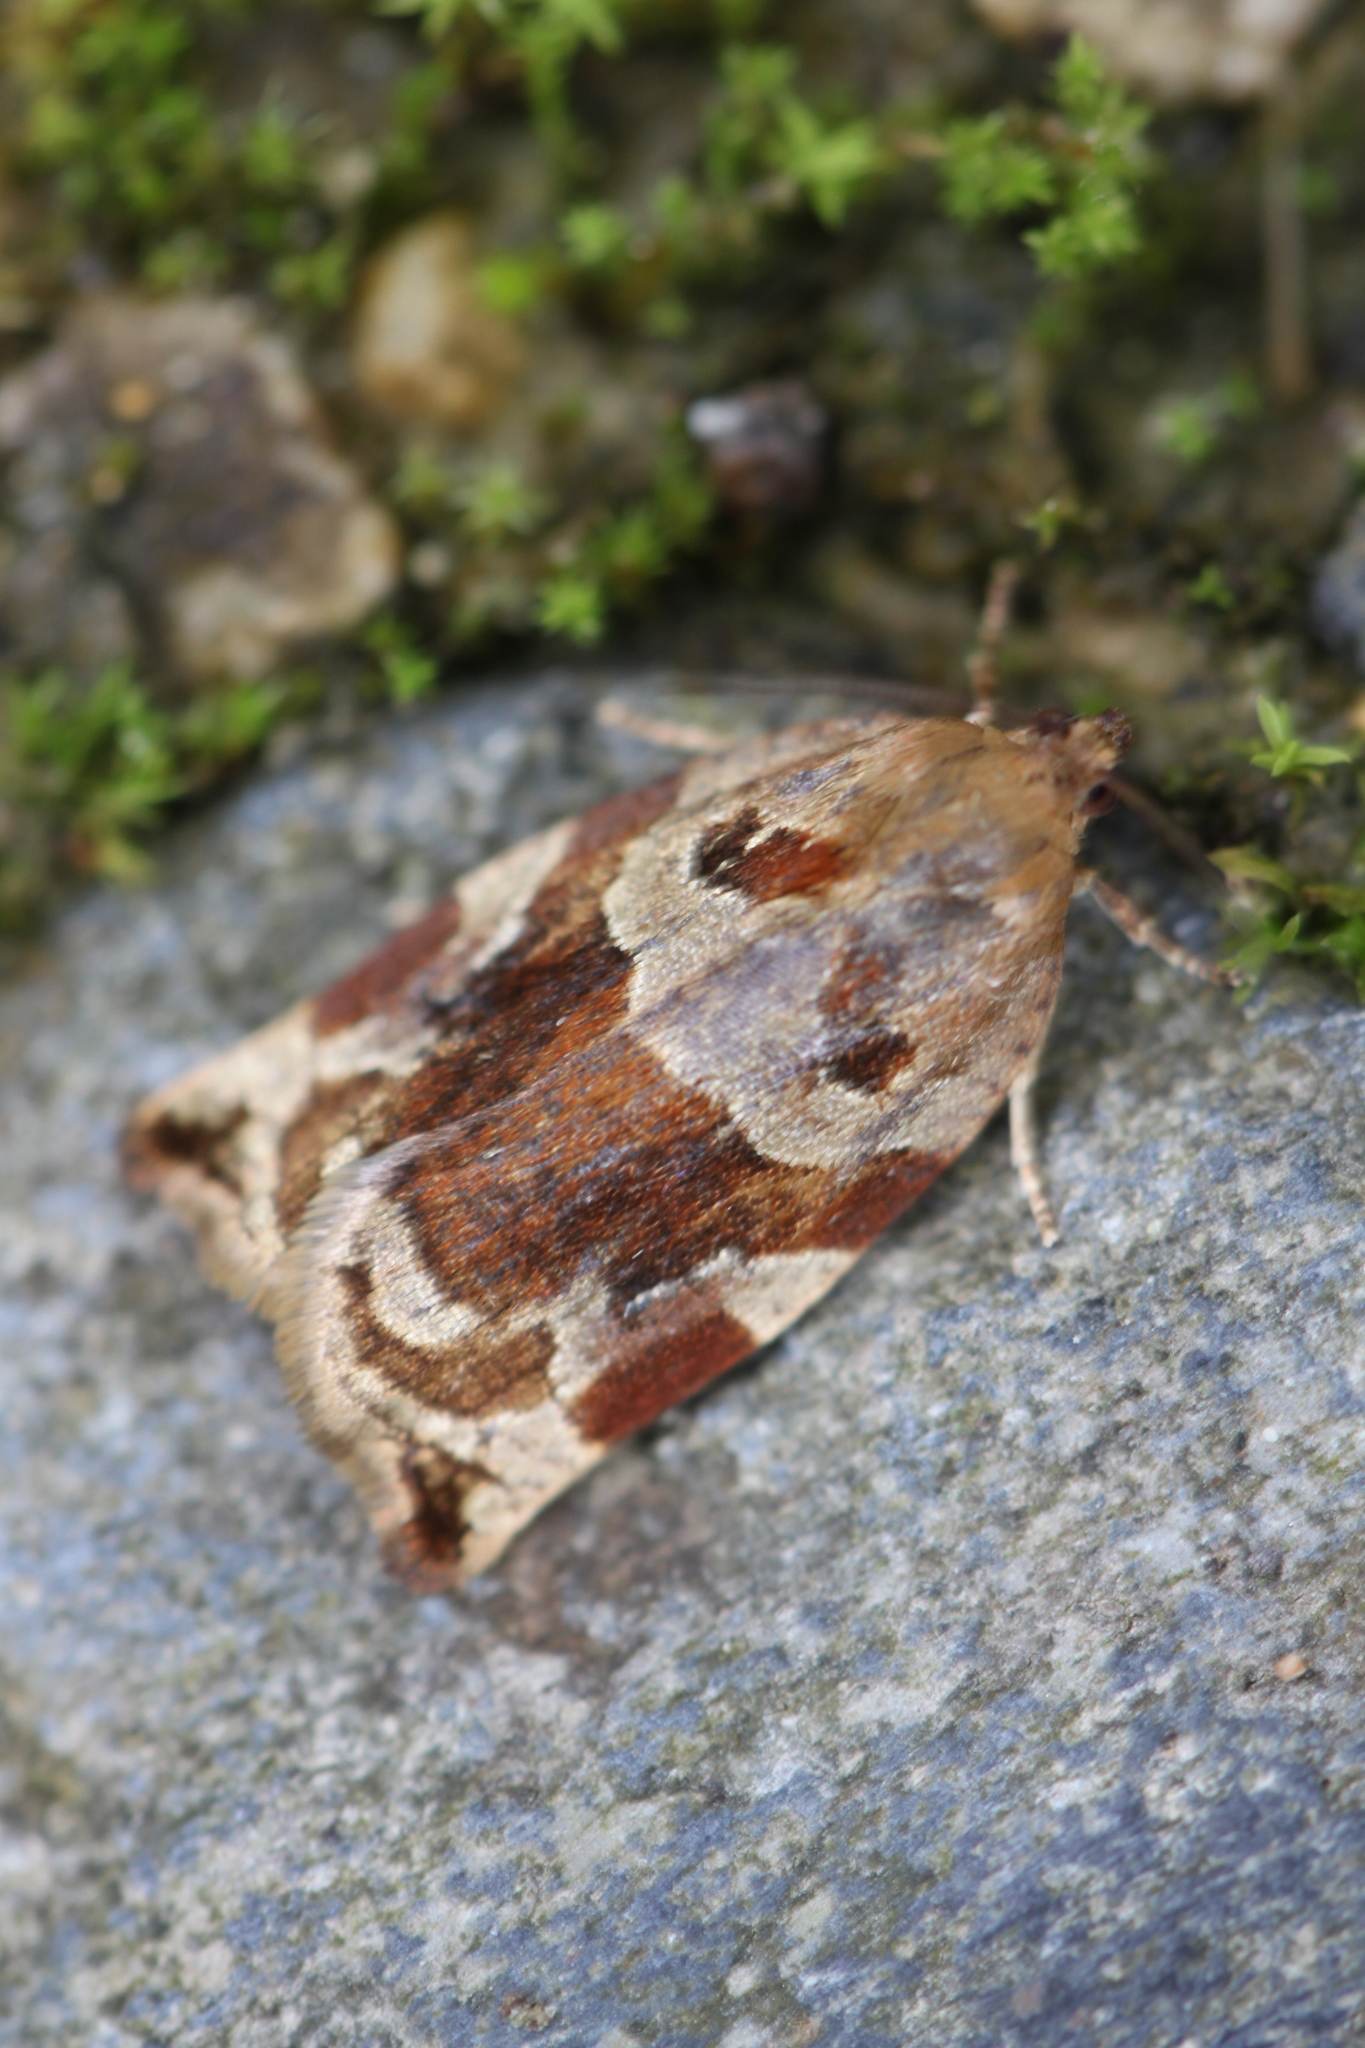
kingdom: Animalia
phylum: Arthropoda
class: Insecta
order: Lepidoptera
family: Tortricidae
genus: Archips
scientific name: Archips xylosteana
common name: Variegated golden tortrix
